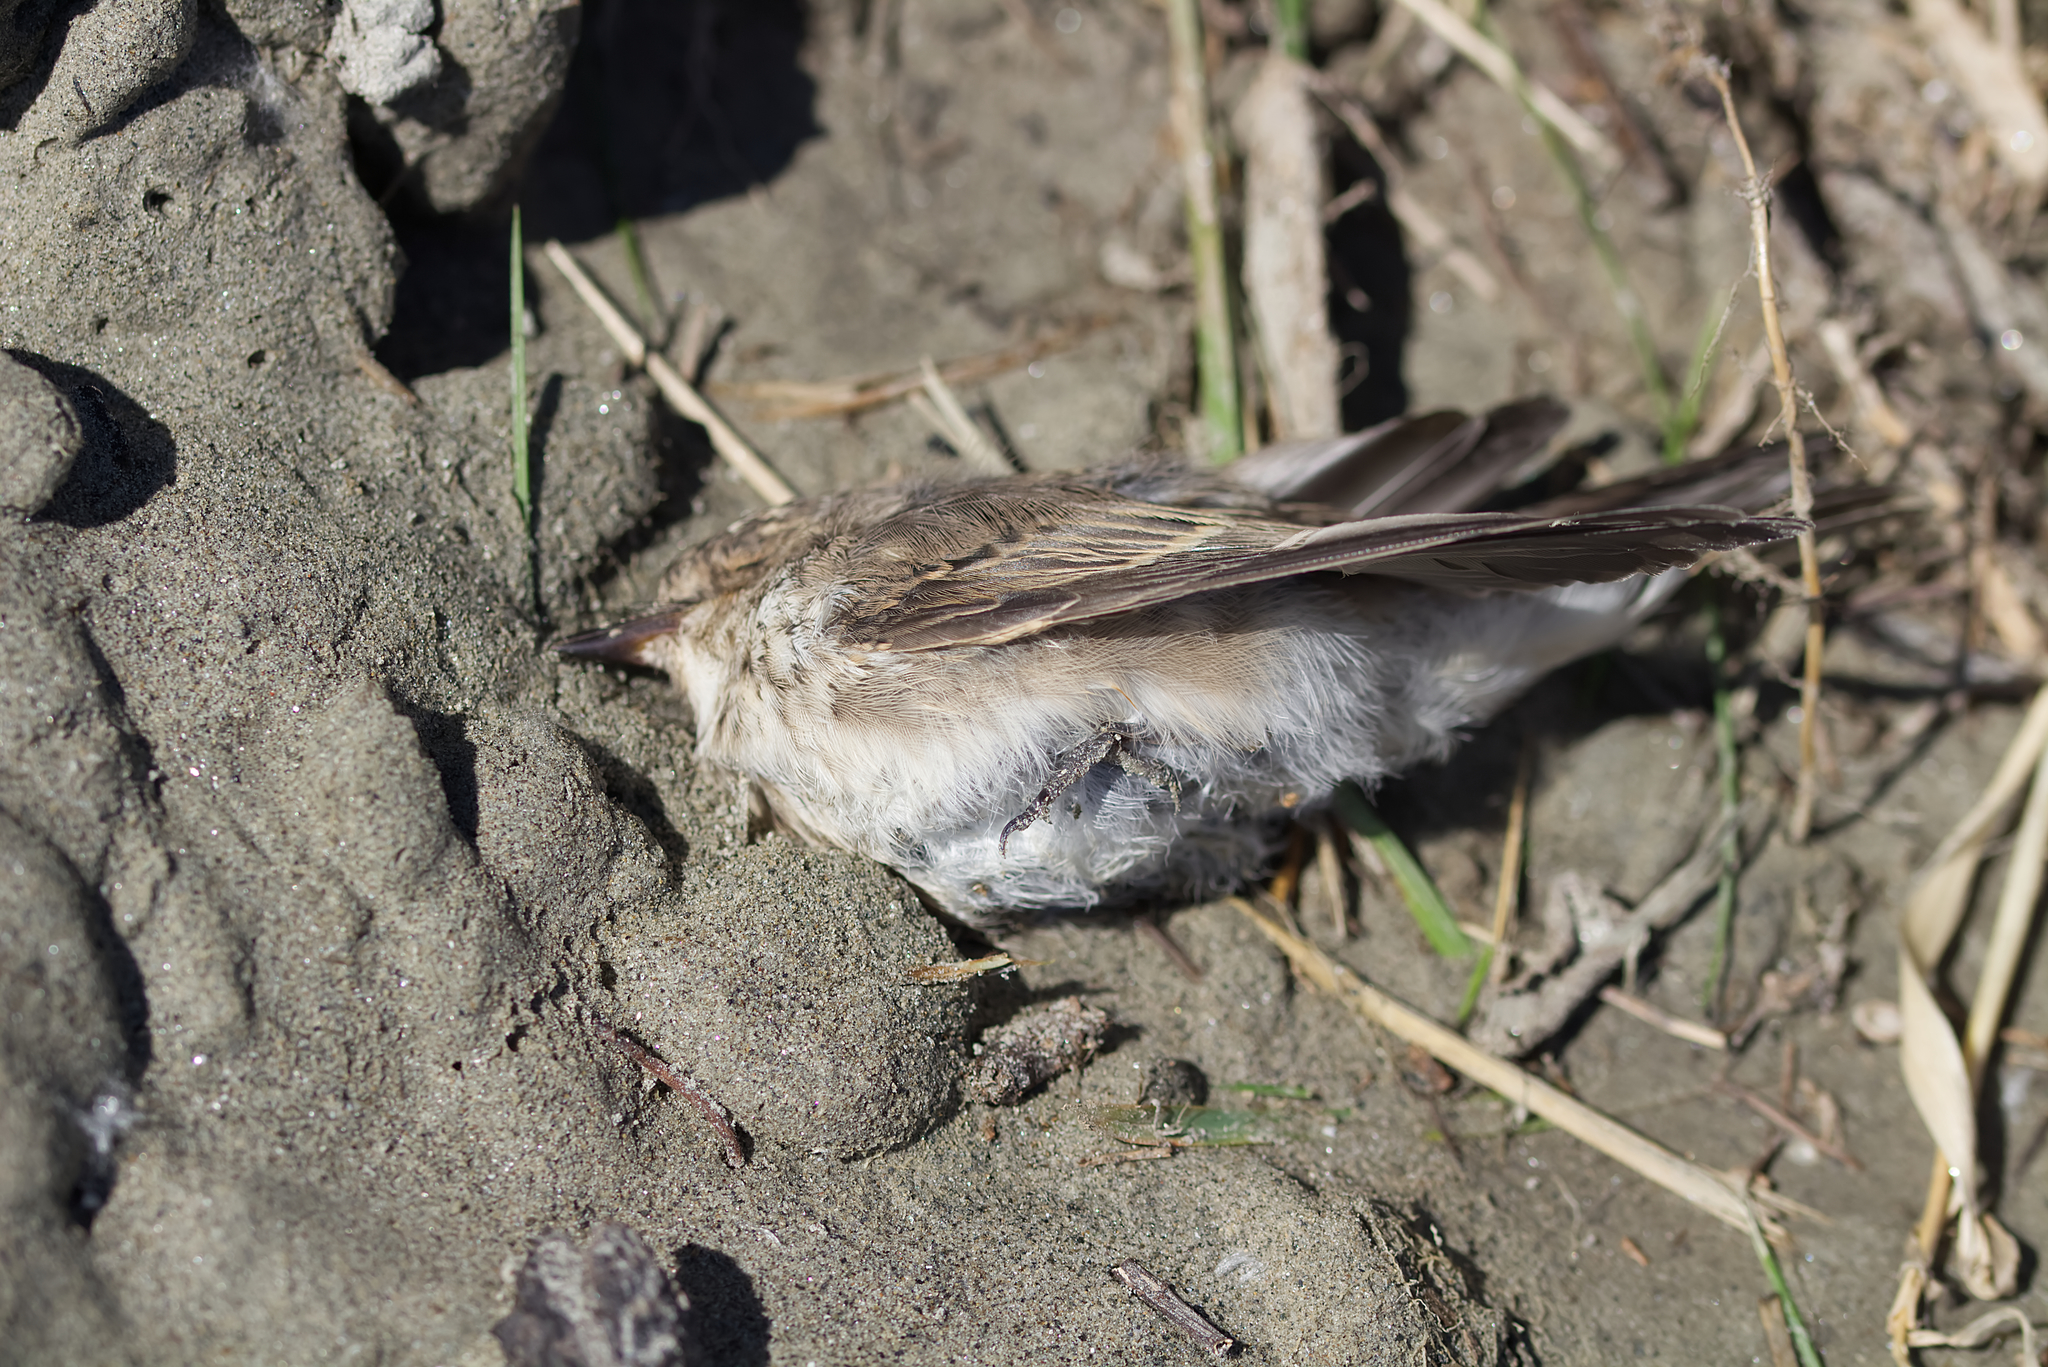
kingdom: Animalia
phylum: Chordata
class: Aves
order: Passeriformes
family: Muscicapidae
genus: Muscicapa
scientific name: Muscicapa striata
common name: Spotted flycatcher
